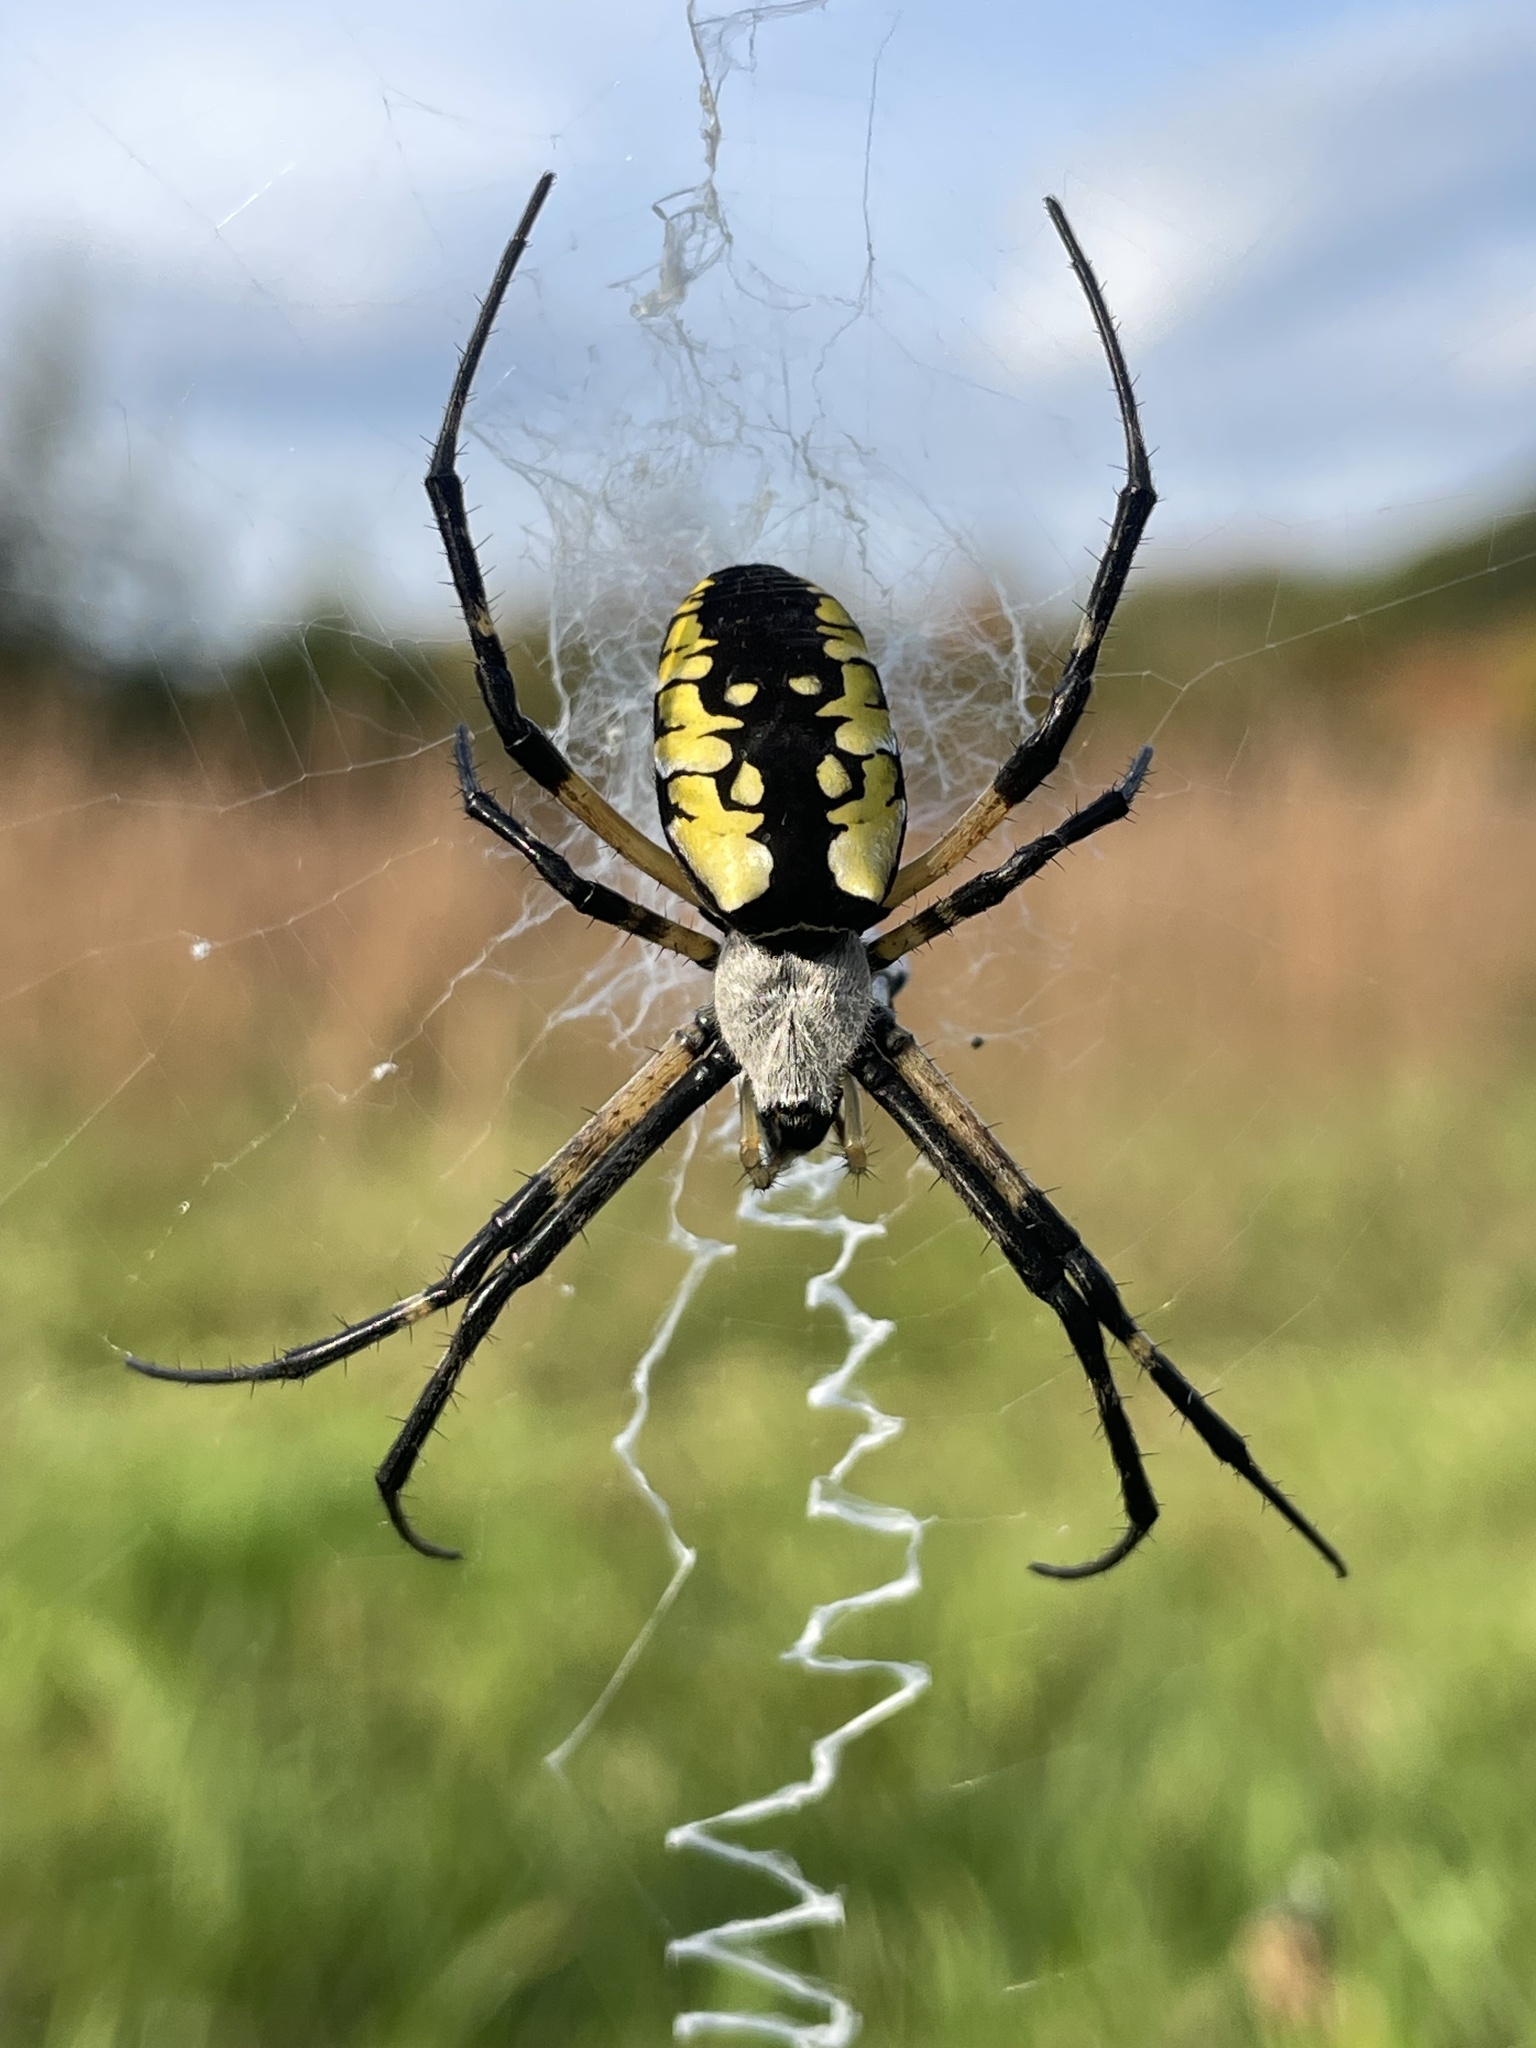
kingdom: Animalia
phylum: Arthropoda
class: Arachnida
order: Araneae
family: Araneidae
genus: Argiope
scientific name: Argiope aurantia
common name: Orb weavers
